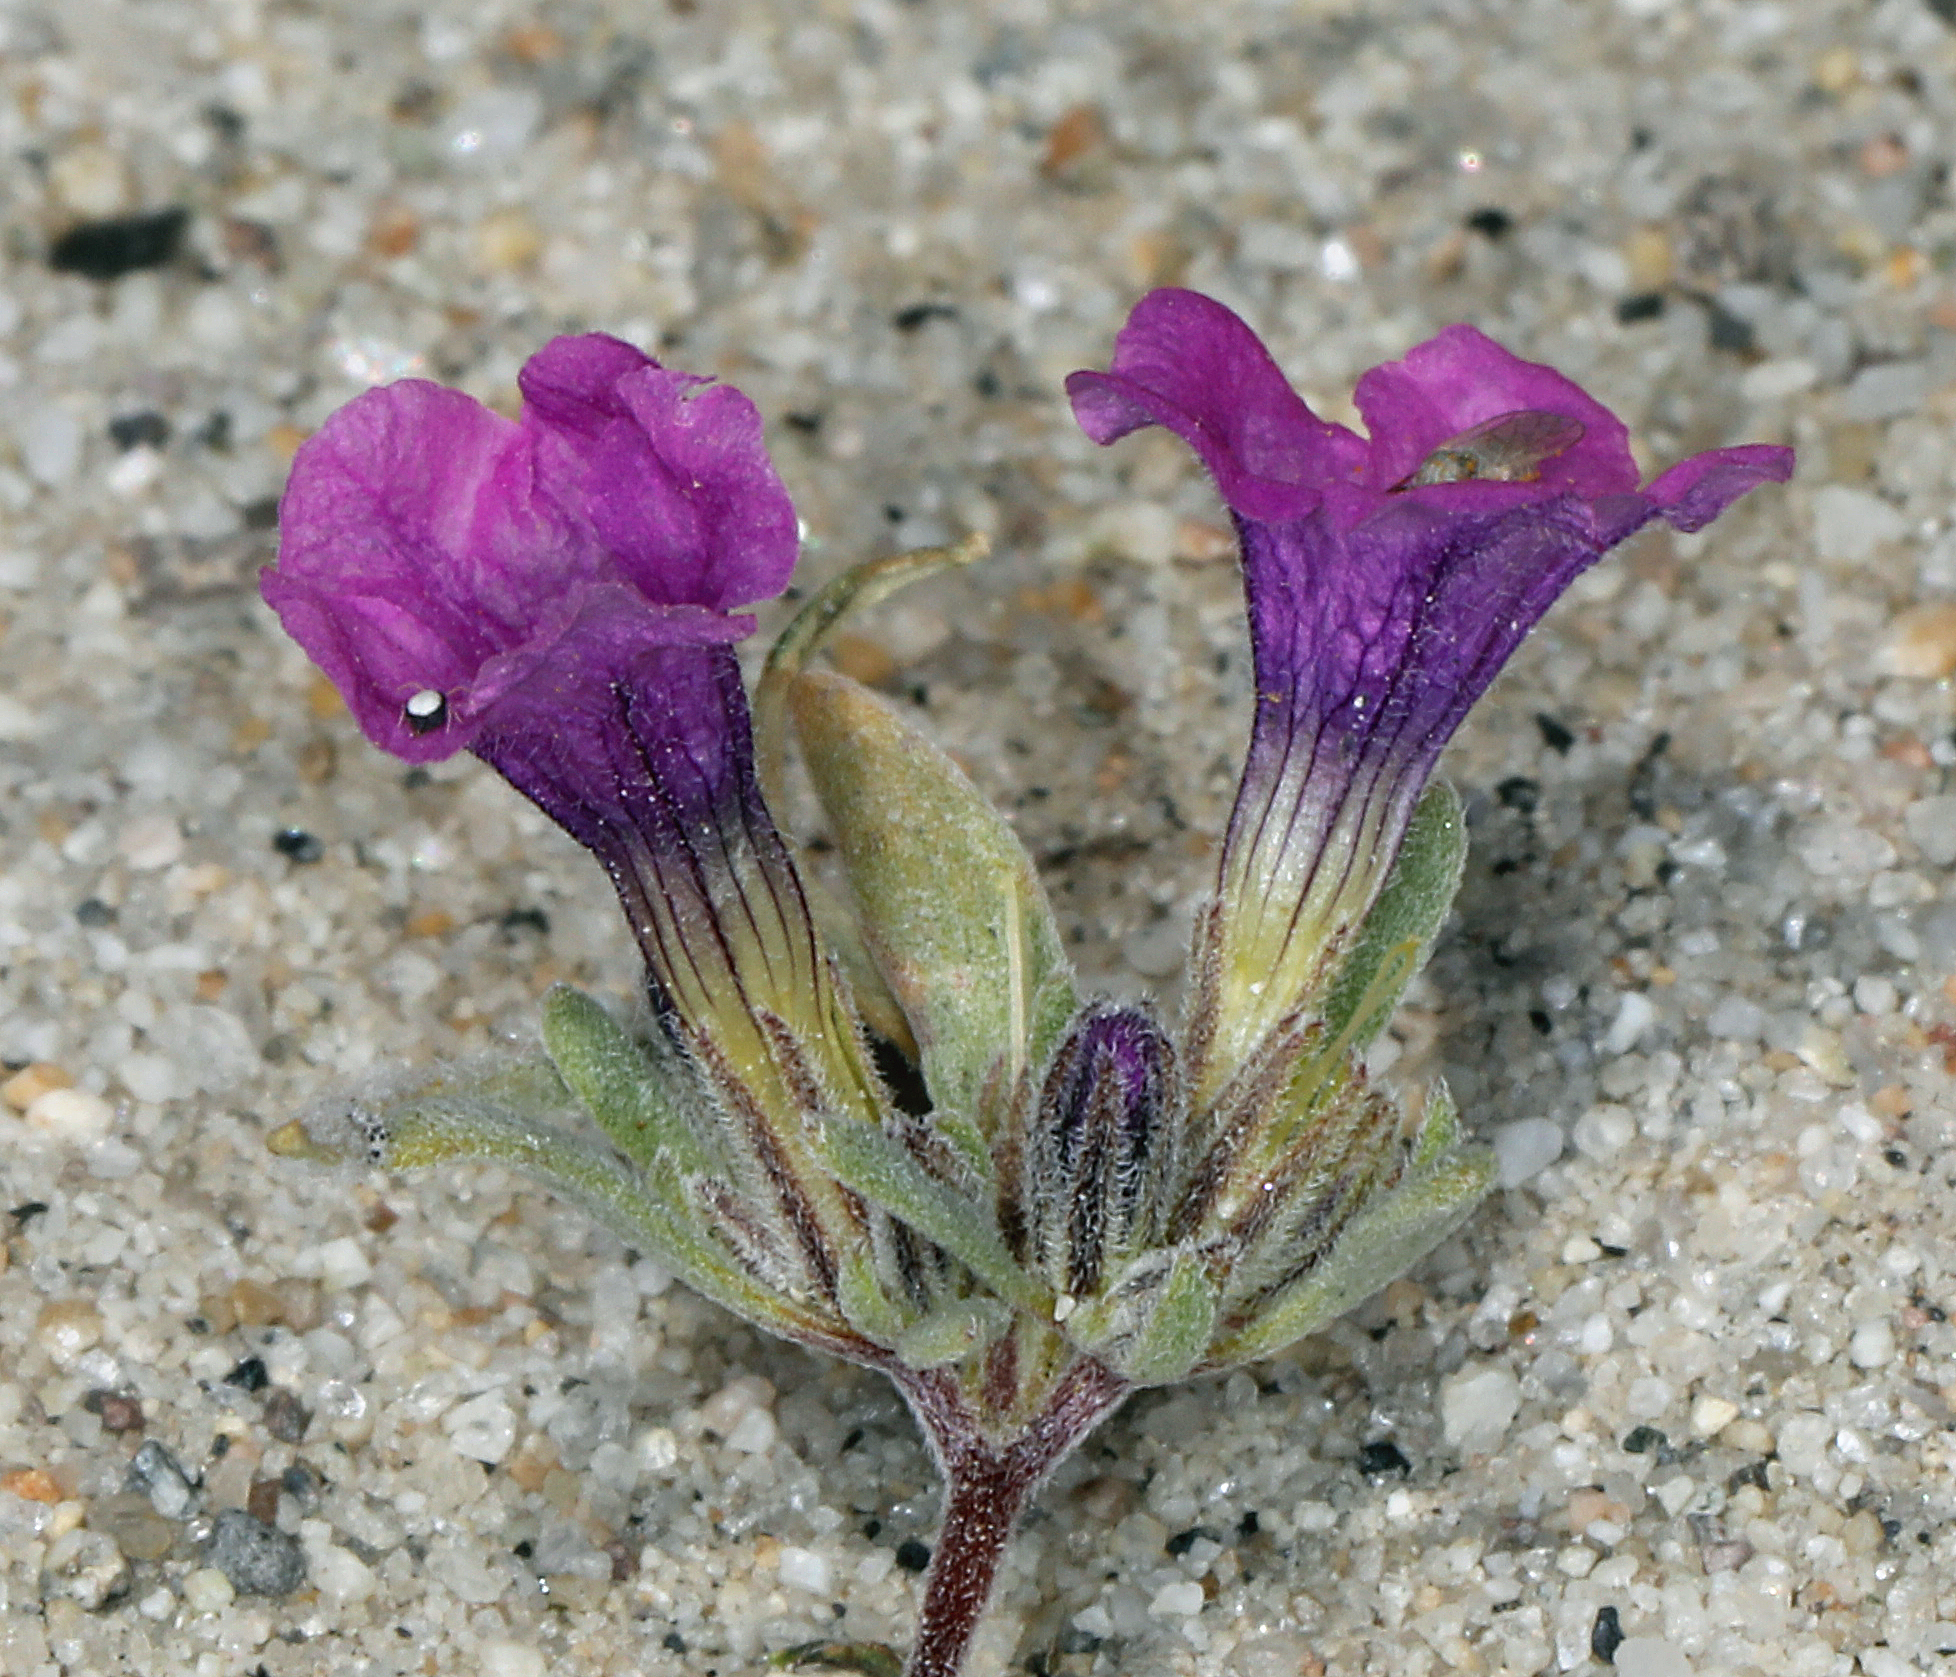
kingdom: Plantae
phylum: Tracheophyta
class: Magnoliopsida
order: Boraginales
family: Namaceae
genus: Nama
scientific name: Nama demissa
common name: Leafy nama
